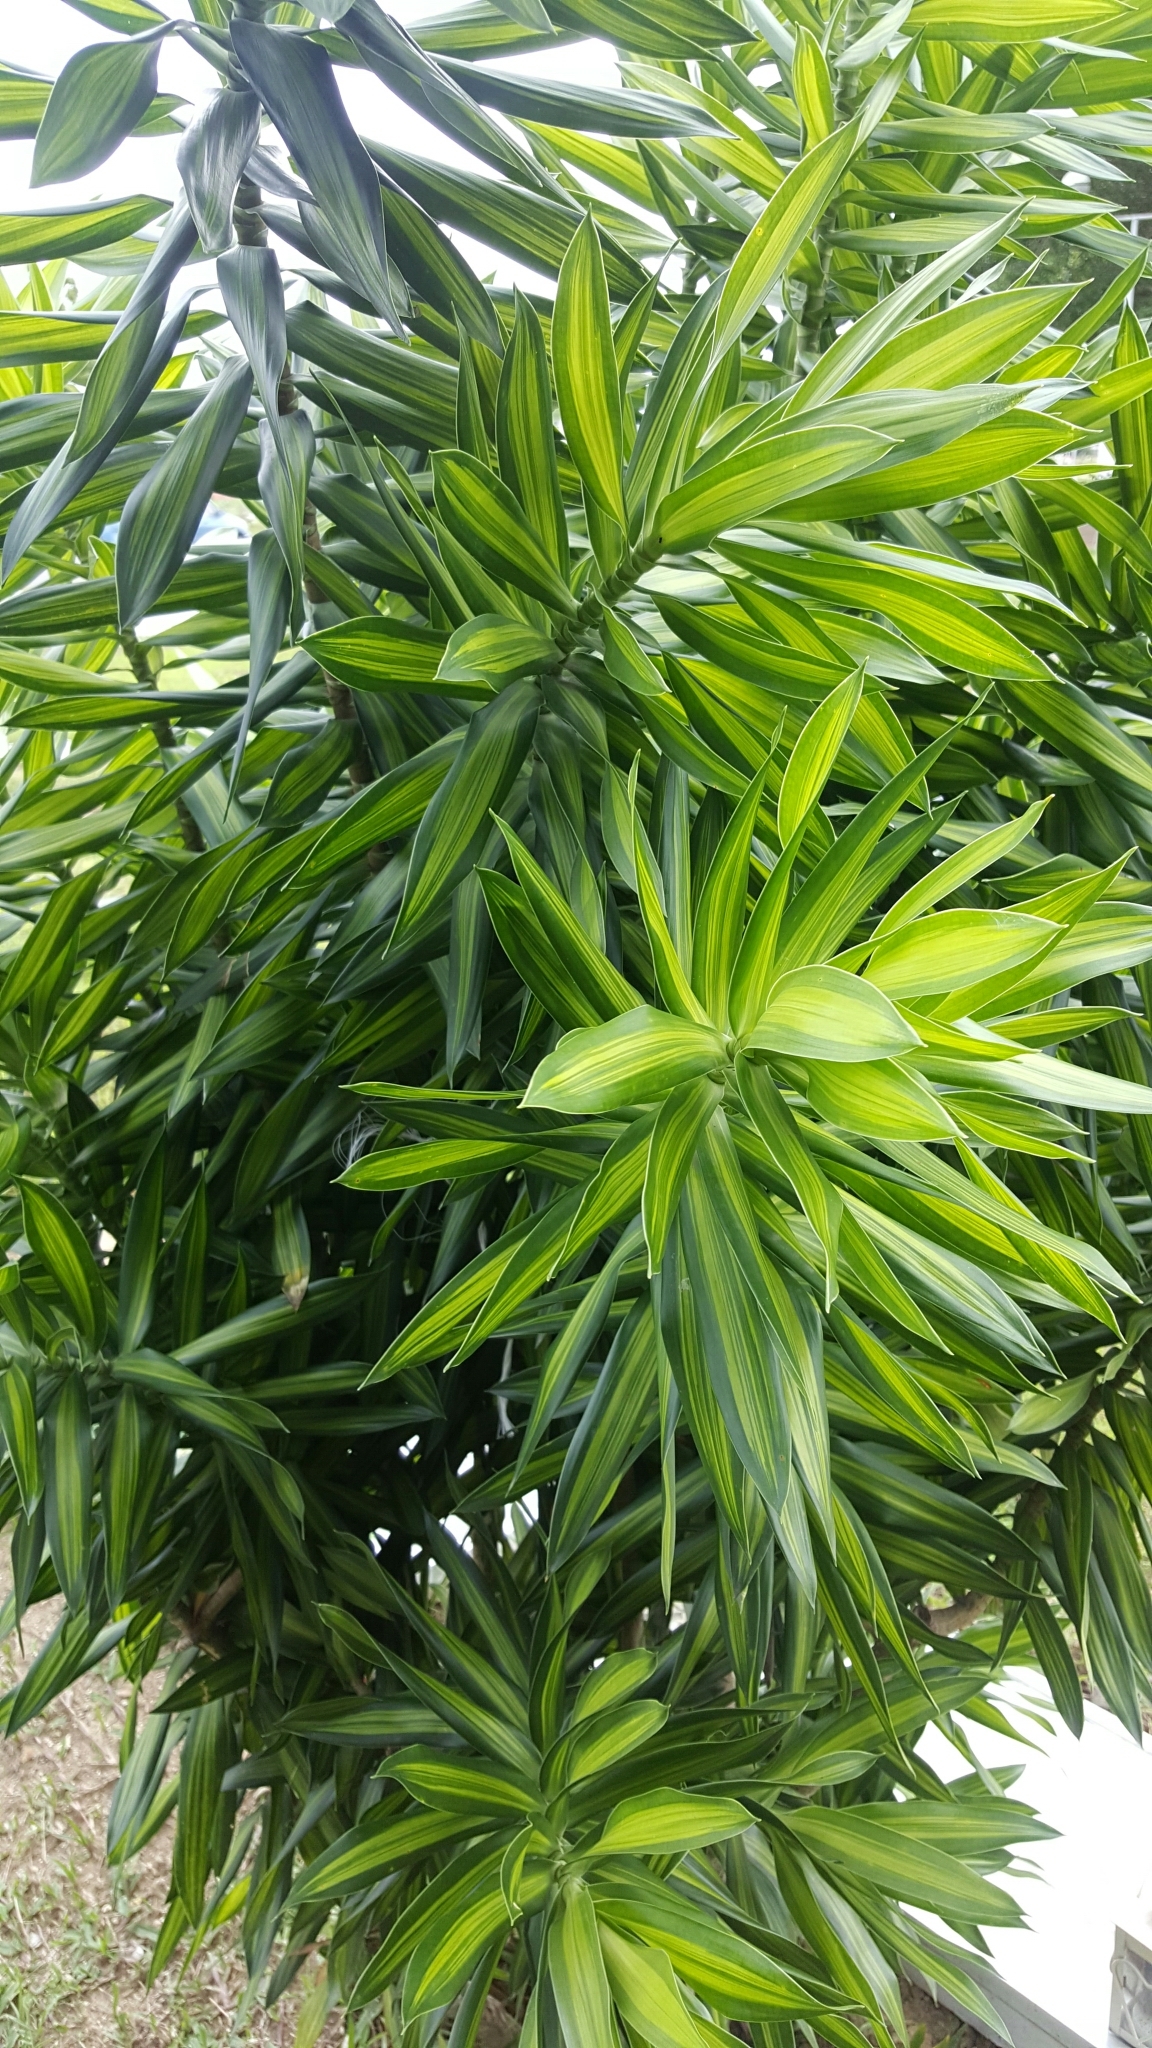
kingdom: Plantae
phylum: Tracheophyta
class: Liliopsida
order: Asparagales
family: Asparagaceae
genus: Dracaena
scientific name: Dracaena reflexa
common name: Song-of-india
